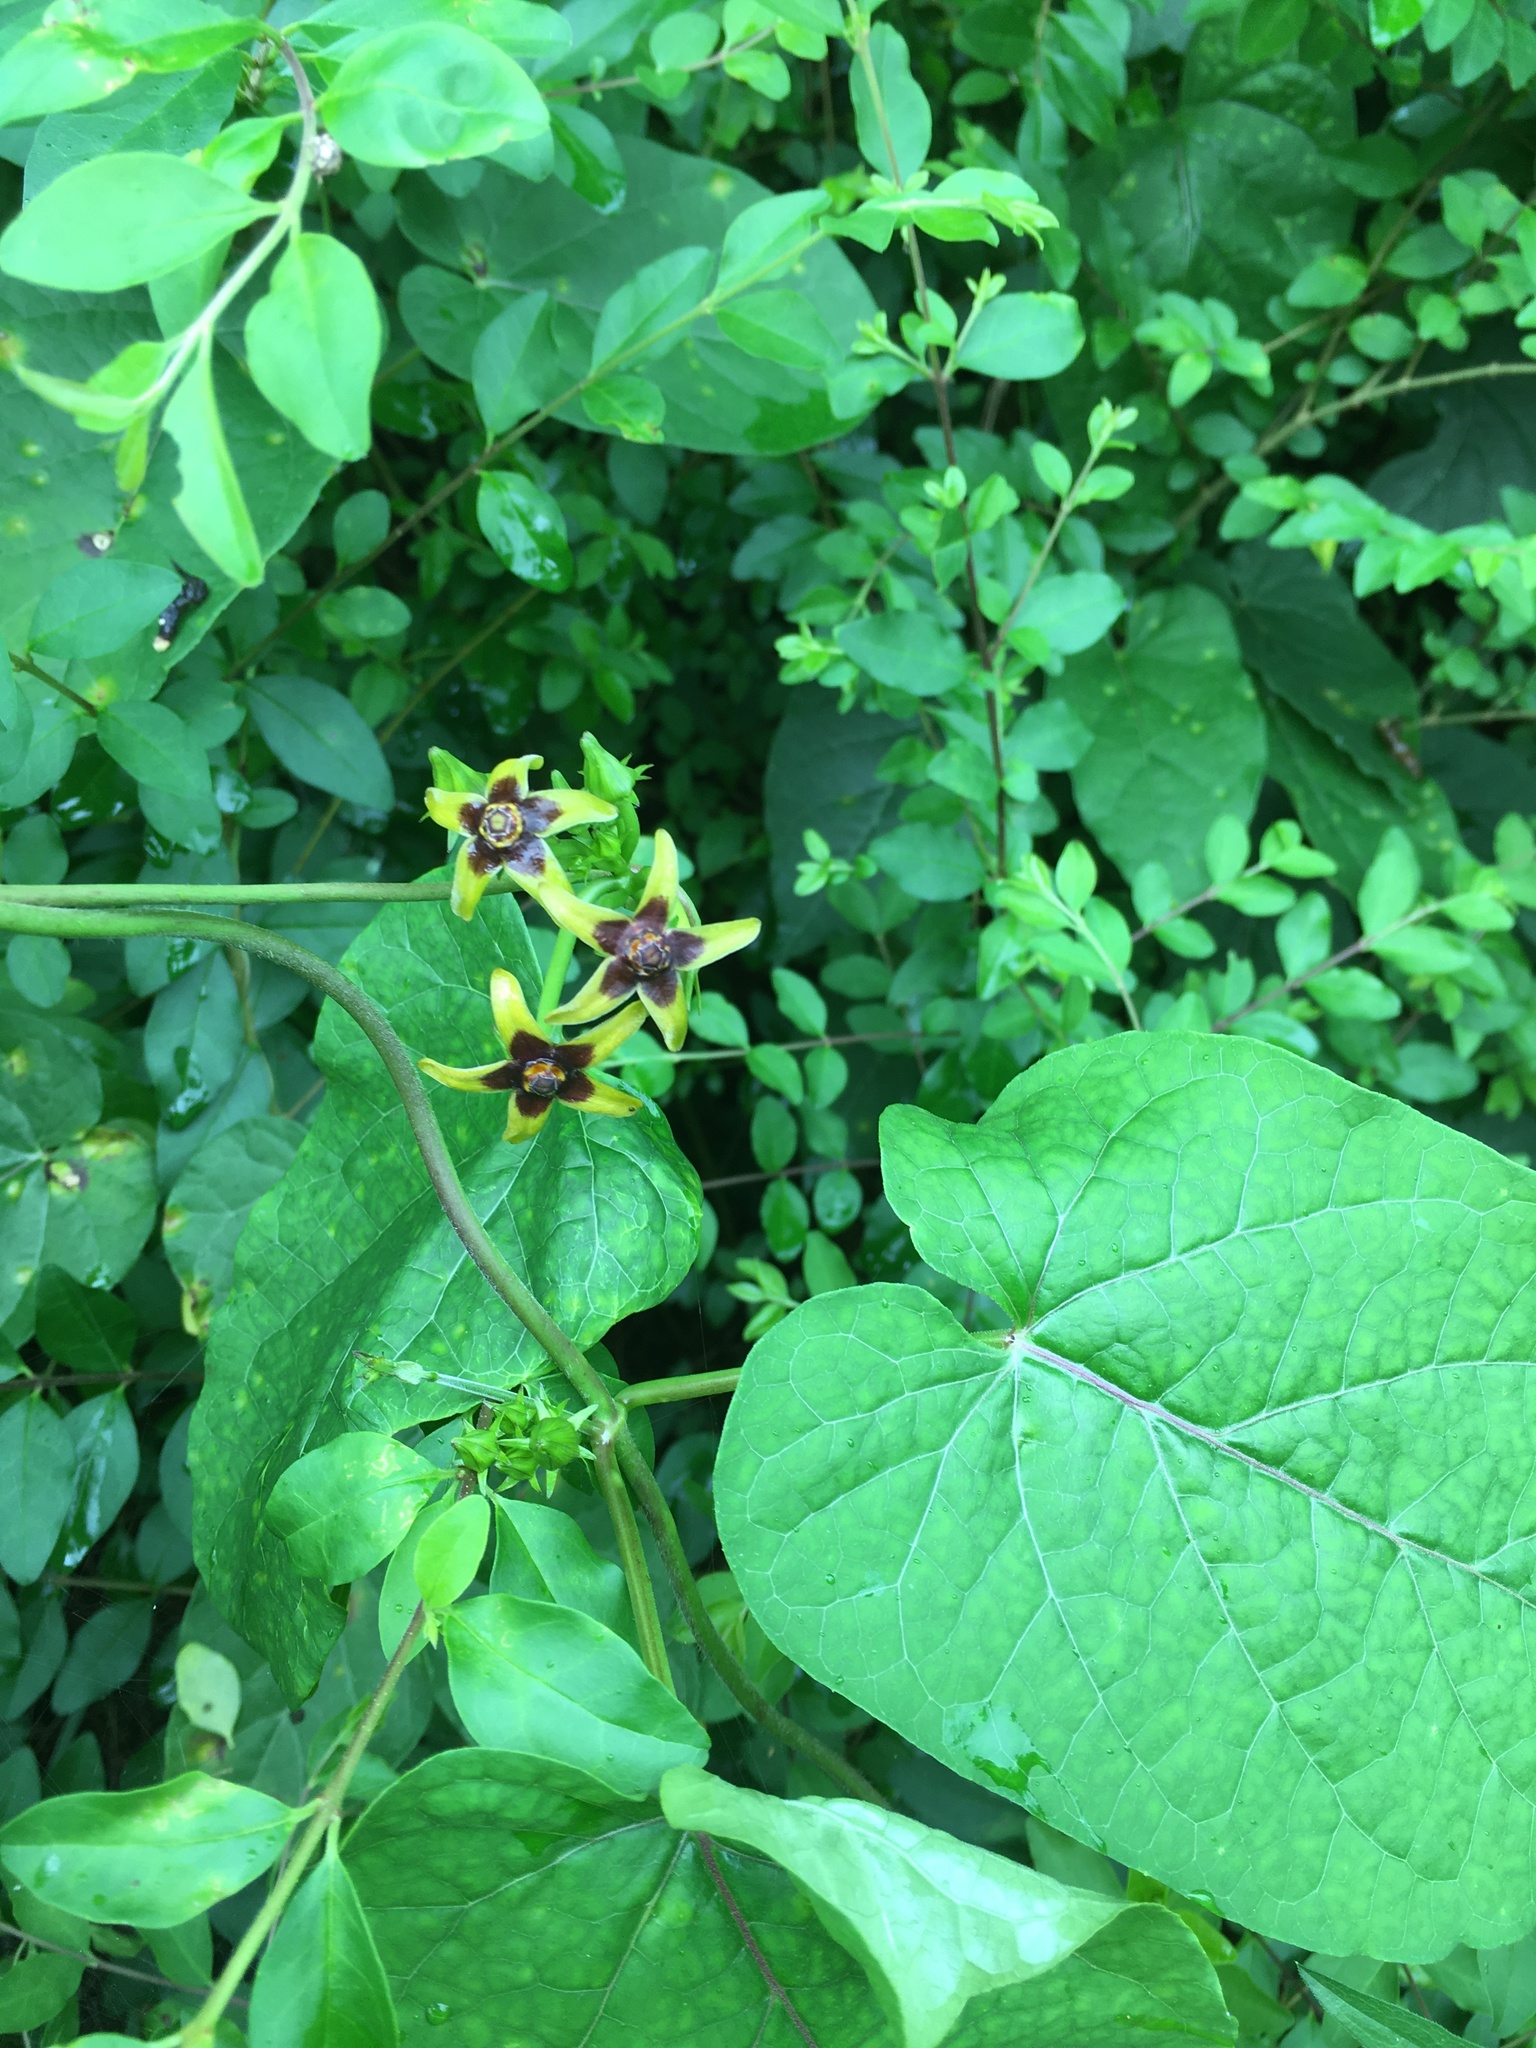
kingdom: Plantae
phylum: Tracheophyta
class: Magnoliopsida
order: Gentianales
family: Apocynaceae
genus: Gonolobus
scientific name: Gonolobus suberosus
